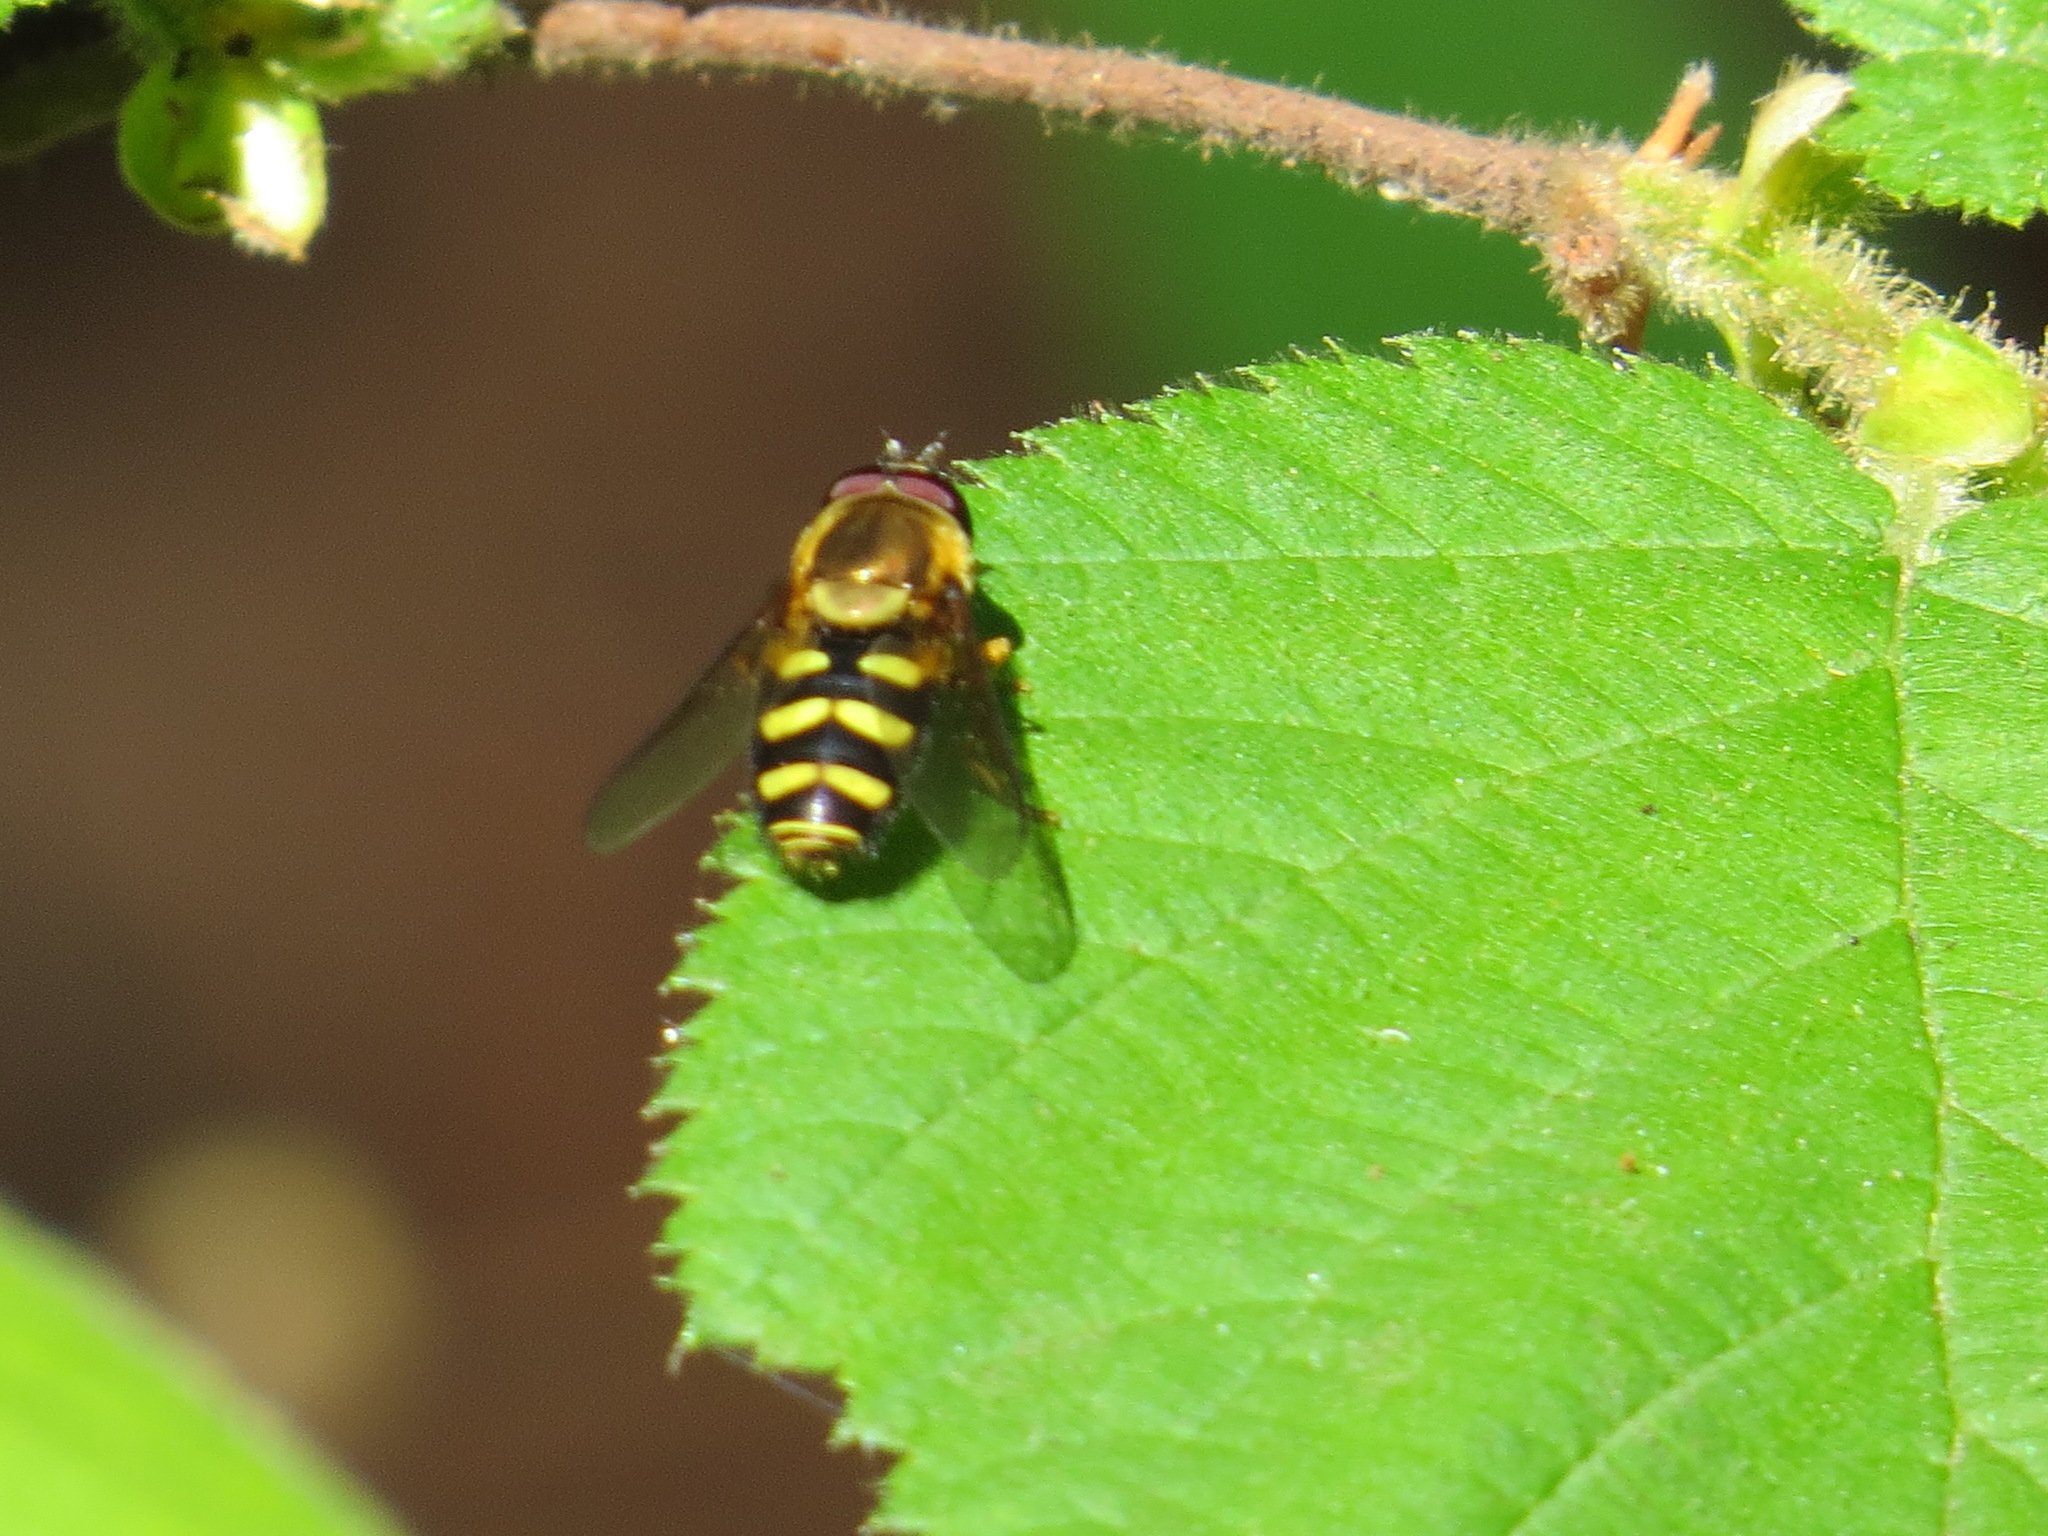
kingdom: Animalia
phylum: Arthropoda
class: Insecta
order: Diptera
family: Syrphidae
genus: Syrphus
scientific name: Syrphus opinator
